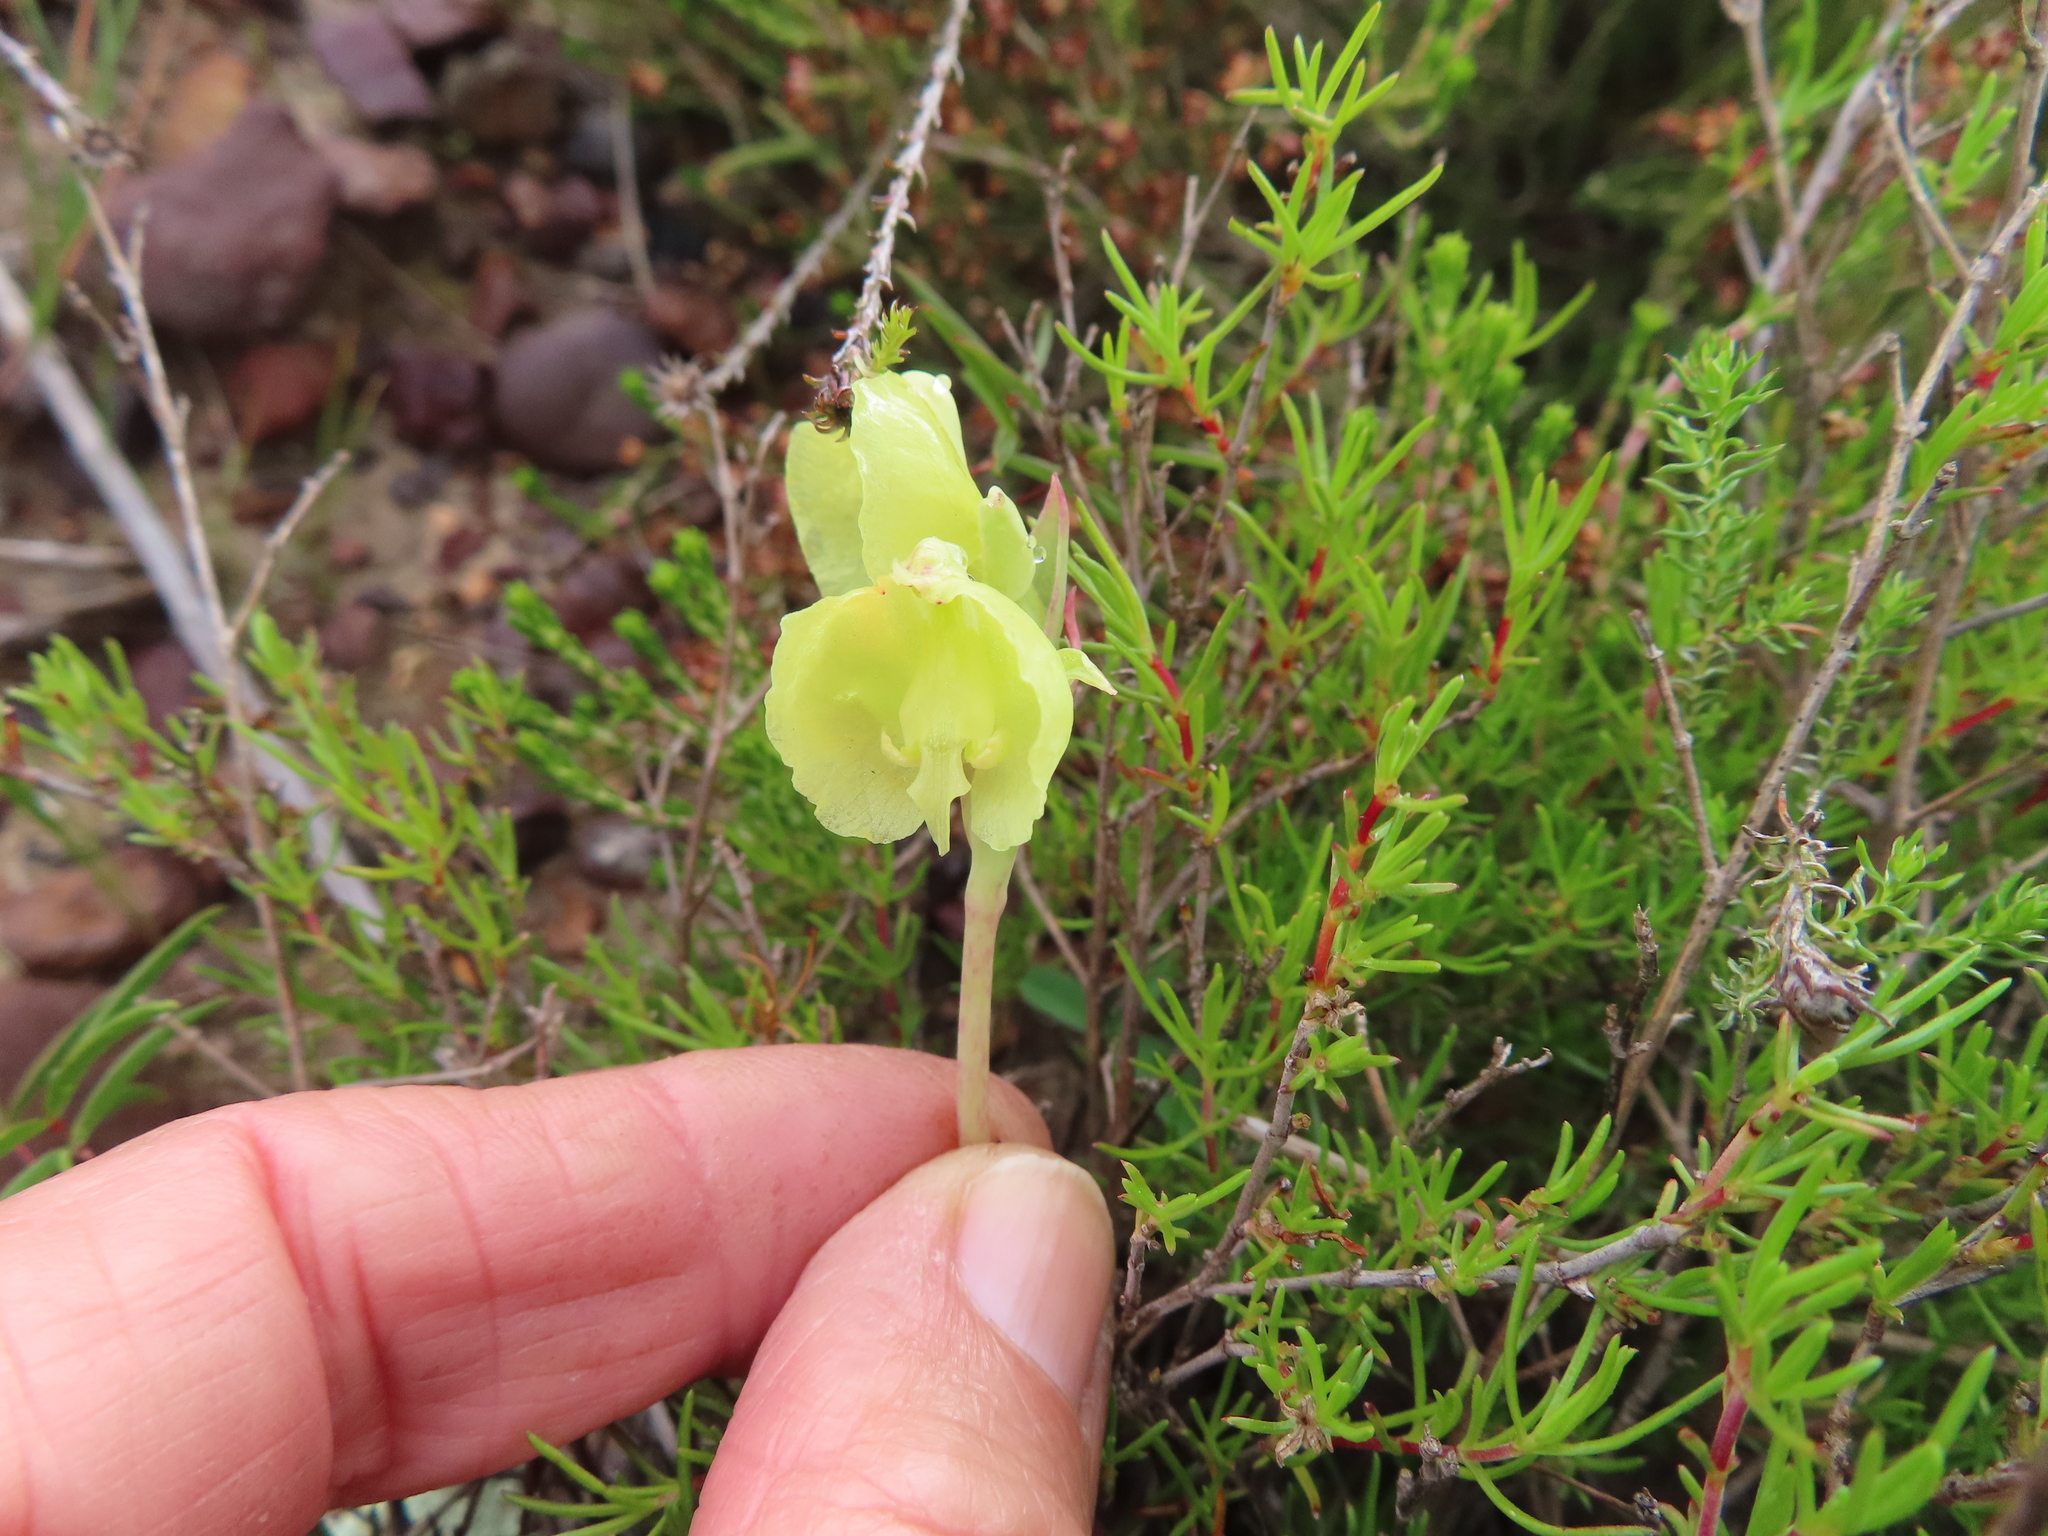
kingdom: Plantae
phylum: Tracheophyta
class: Liliopsida
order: Asparagales
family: Orchidaceae
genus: Pterygodium
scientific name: Pterygodium catholicum
